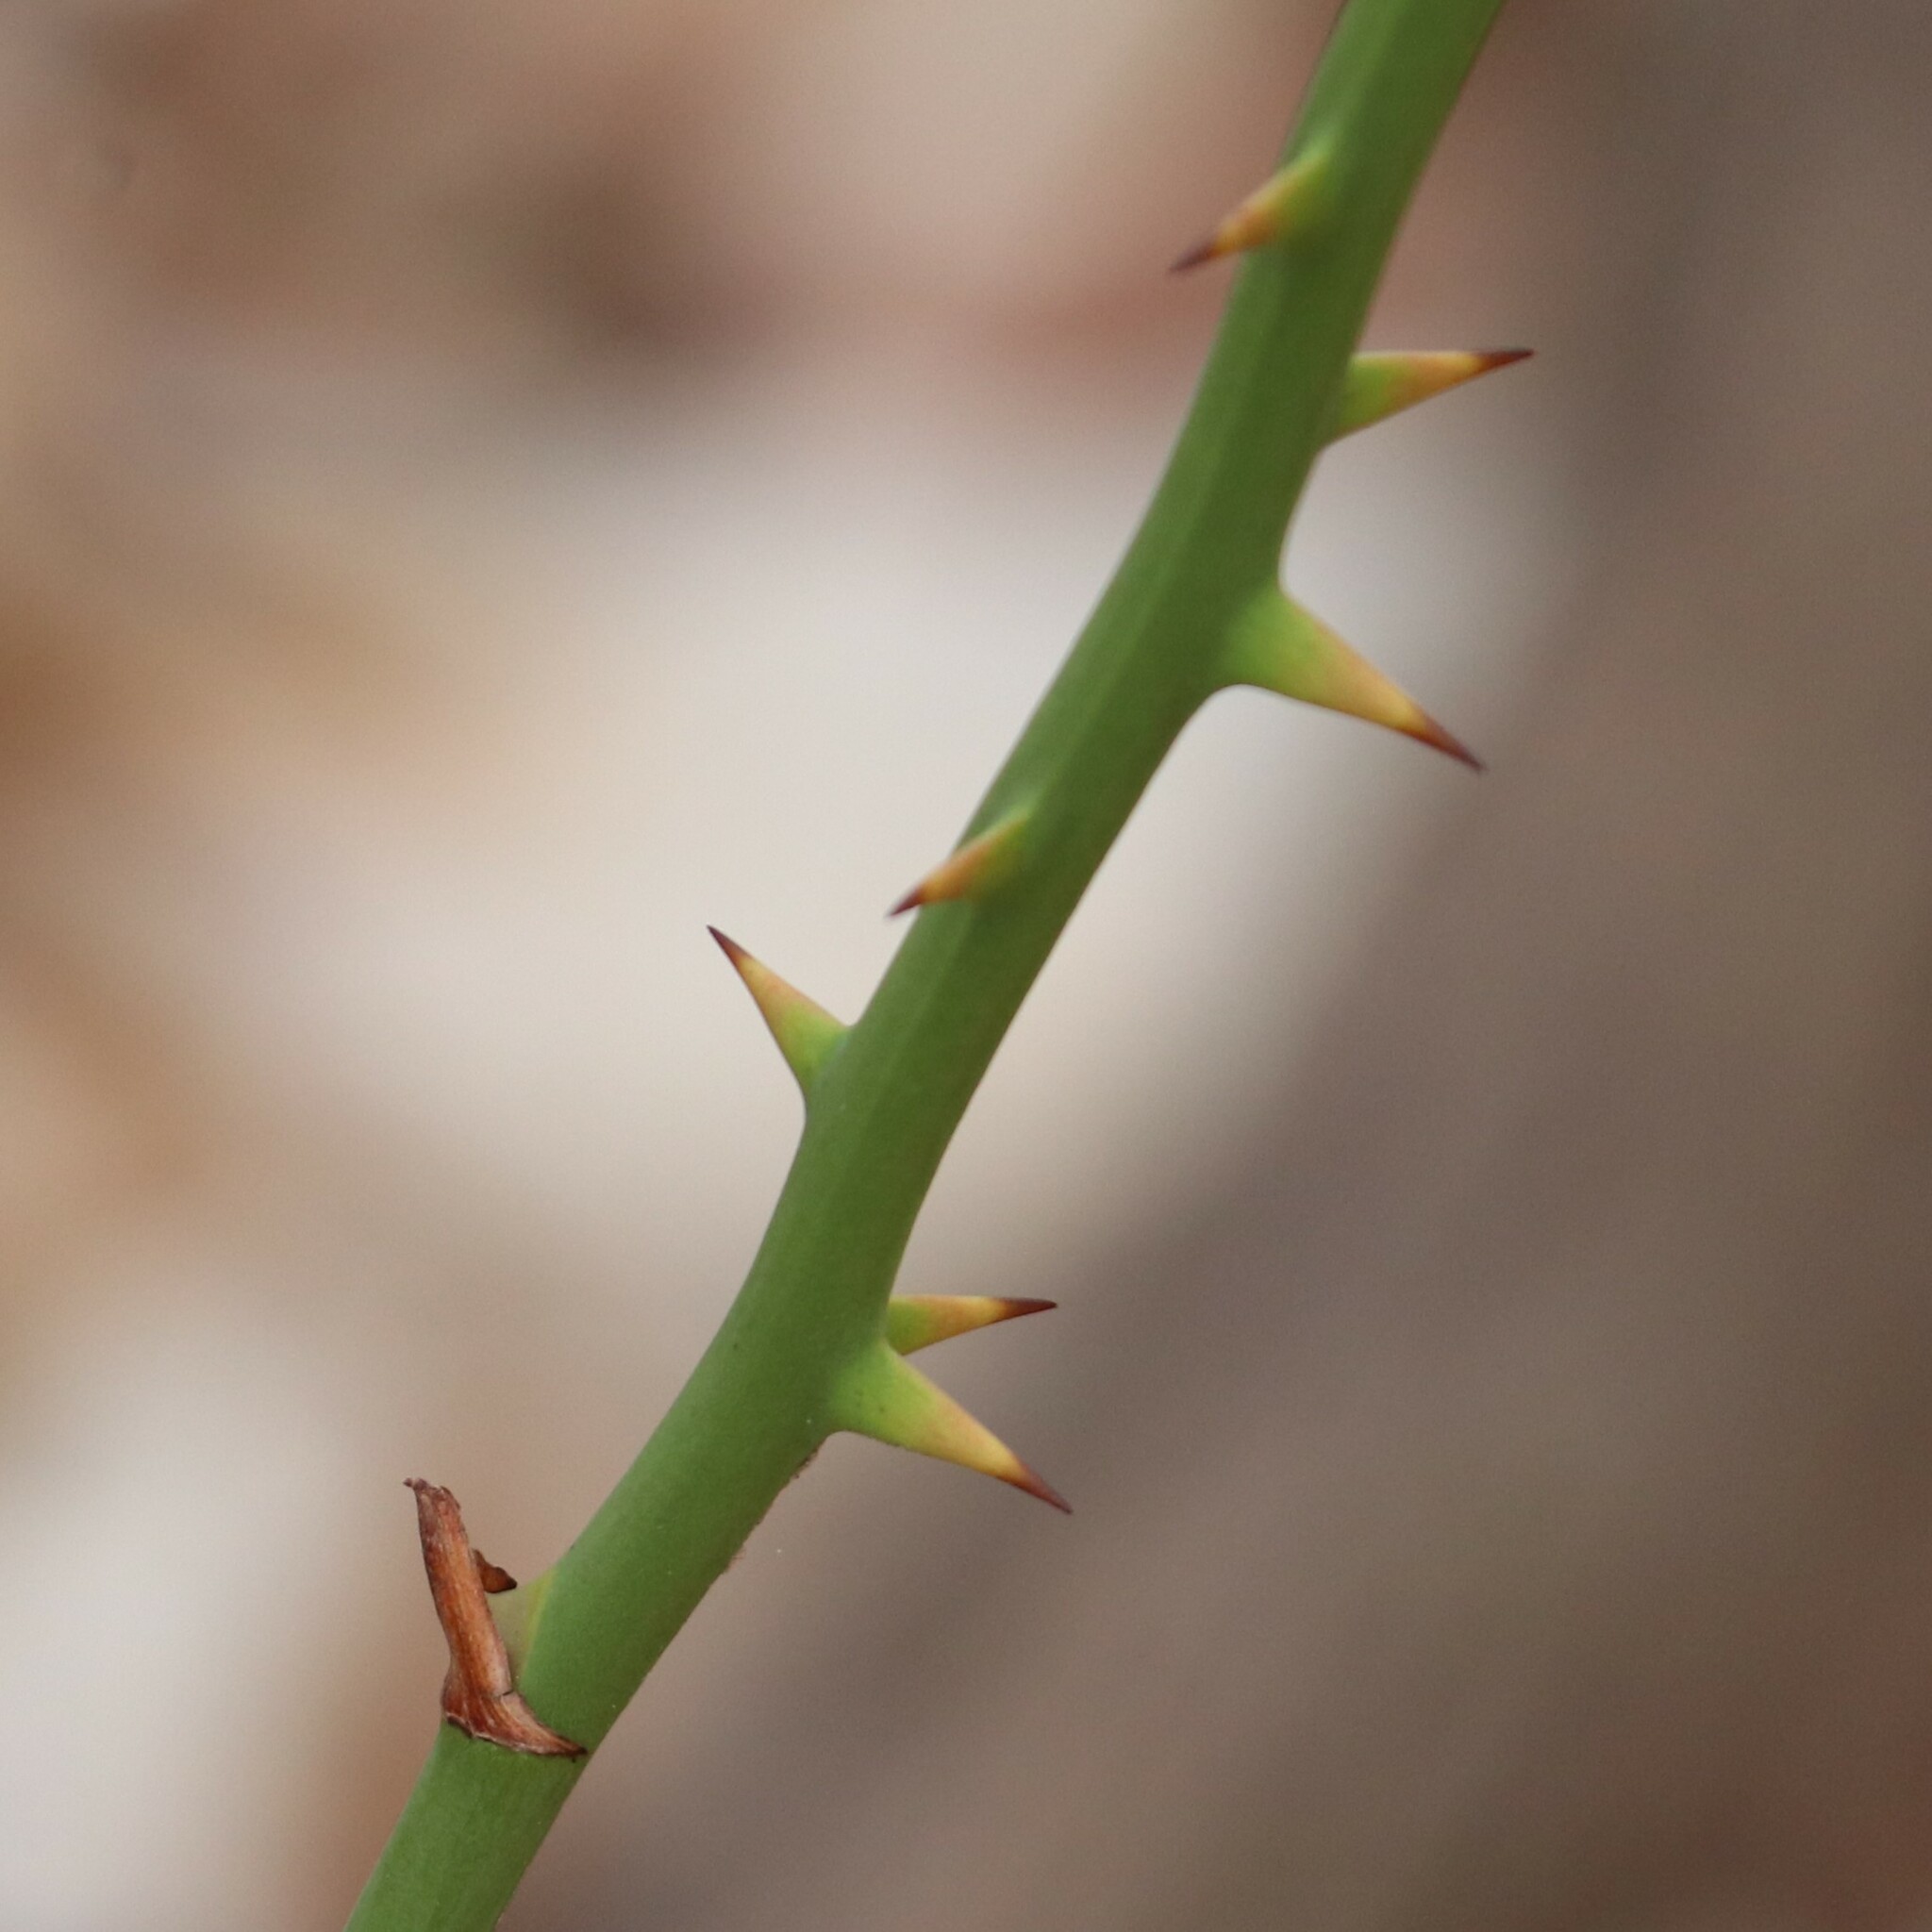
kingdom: Plantae
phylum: Tracheophyta
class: Liliopsida
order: Liliales
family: Smilacaceae
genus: Smilax
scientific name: Smilax rotundifolia
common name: Bullbriar
